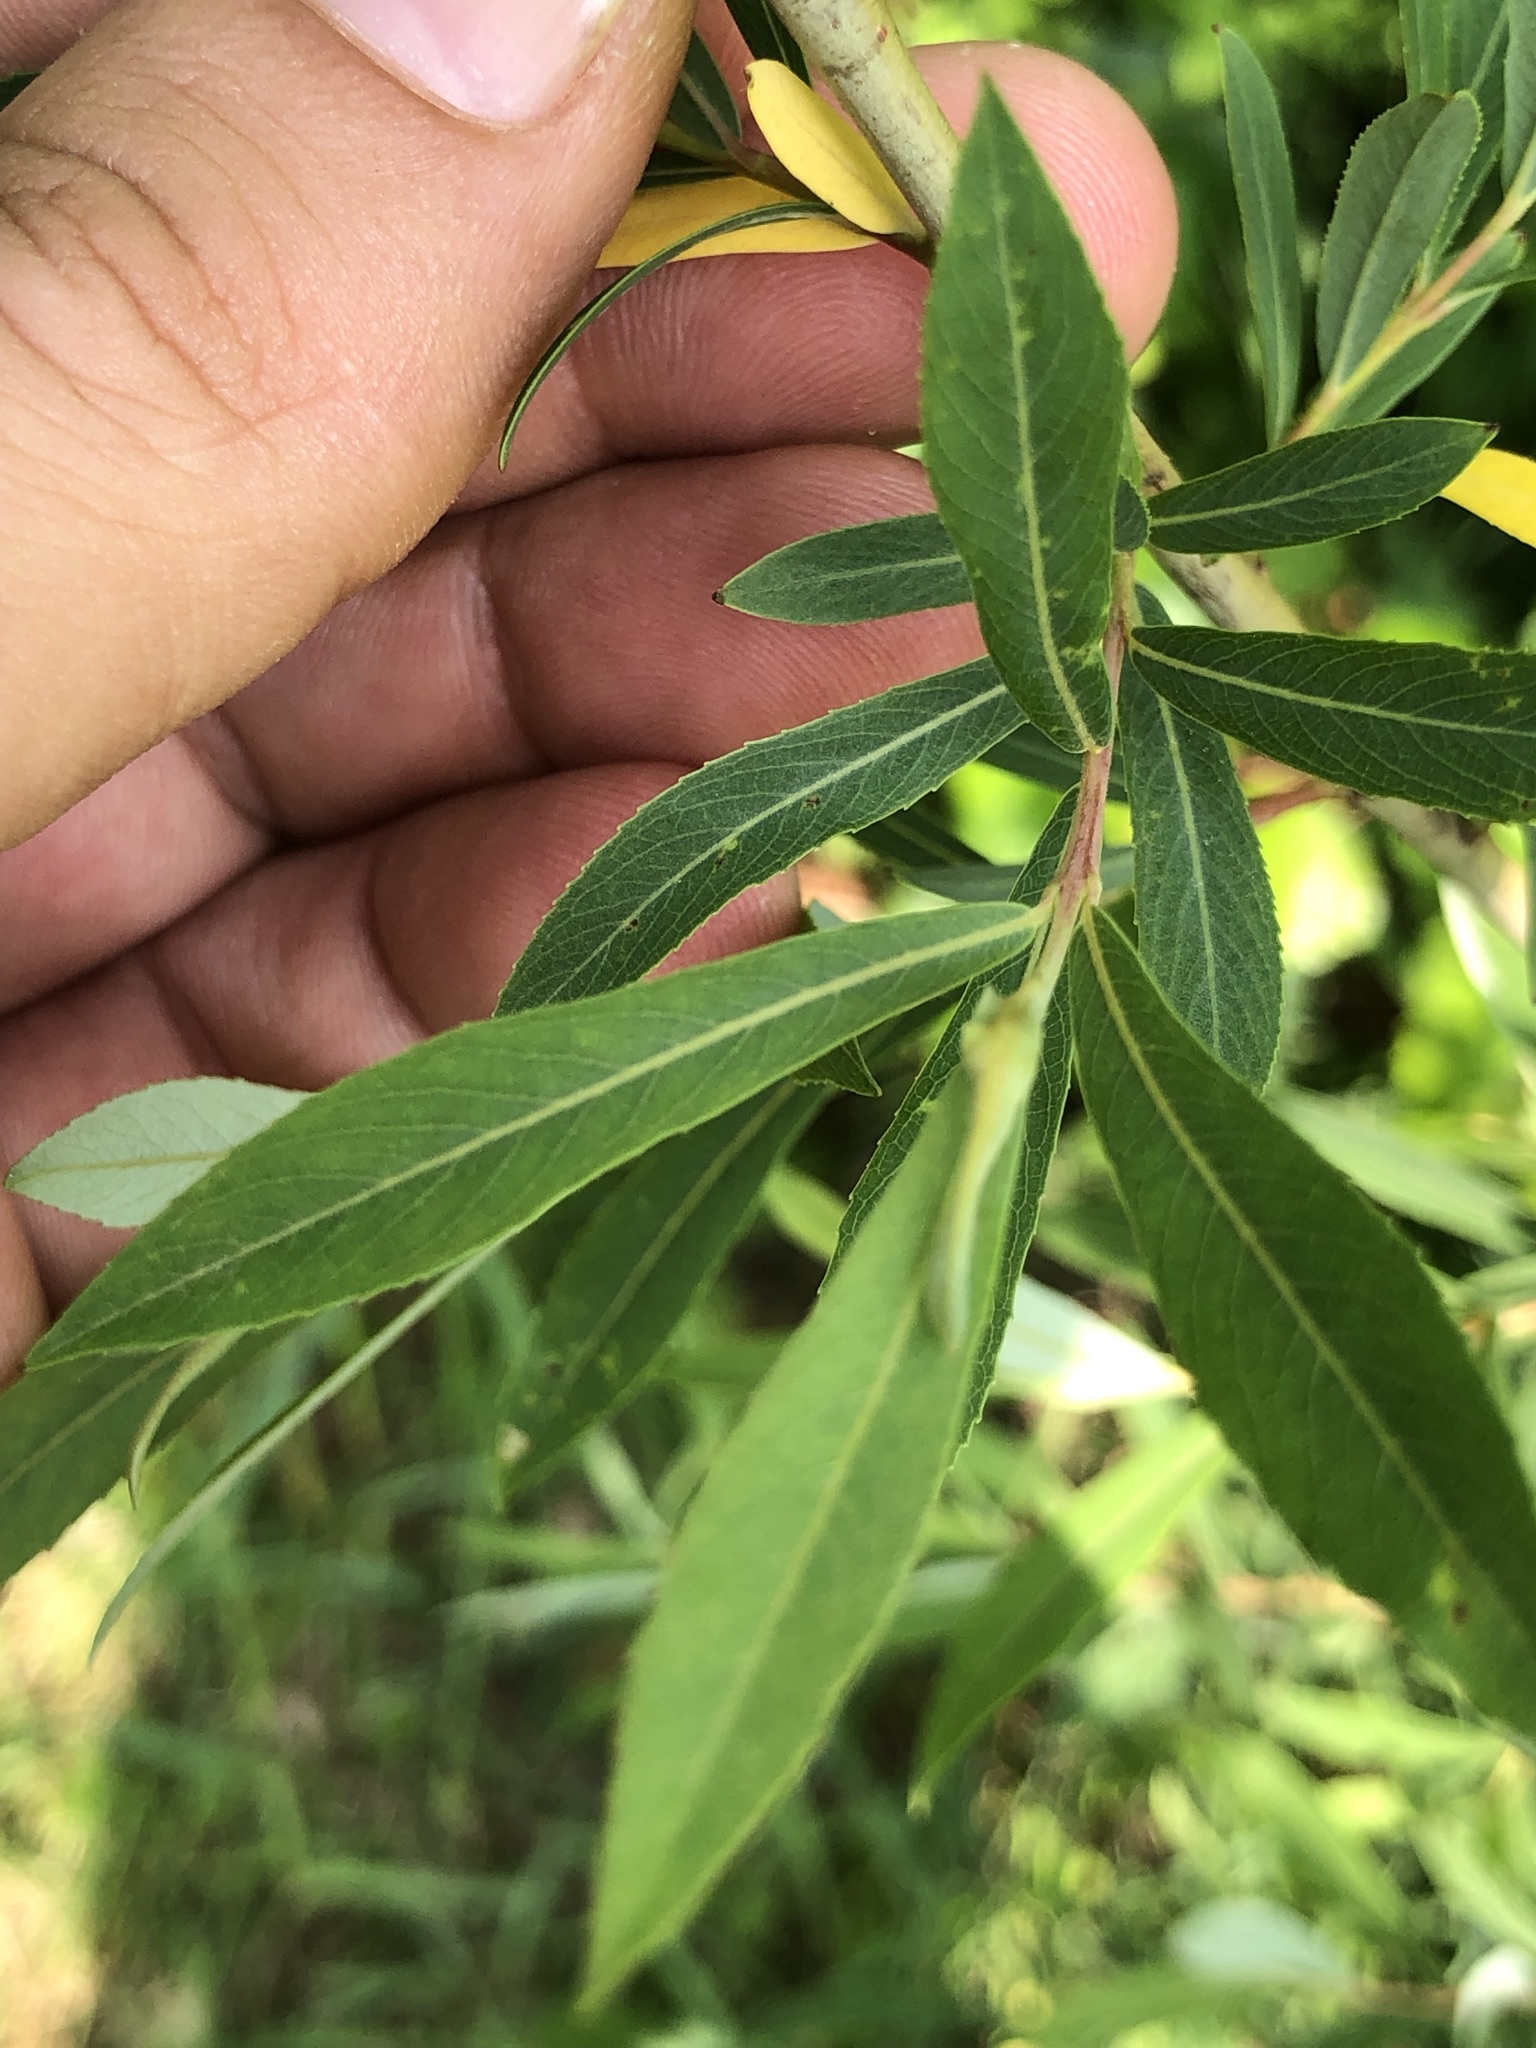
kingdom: Plantae
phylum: Tracheophyta
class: Magnoliopsida
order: Malpighiales
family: Salicaceae
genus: Salix
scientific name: Salix purpurea
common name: Purple willow
